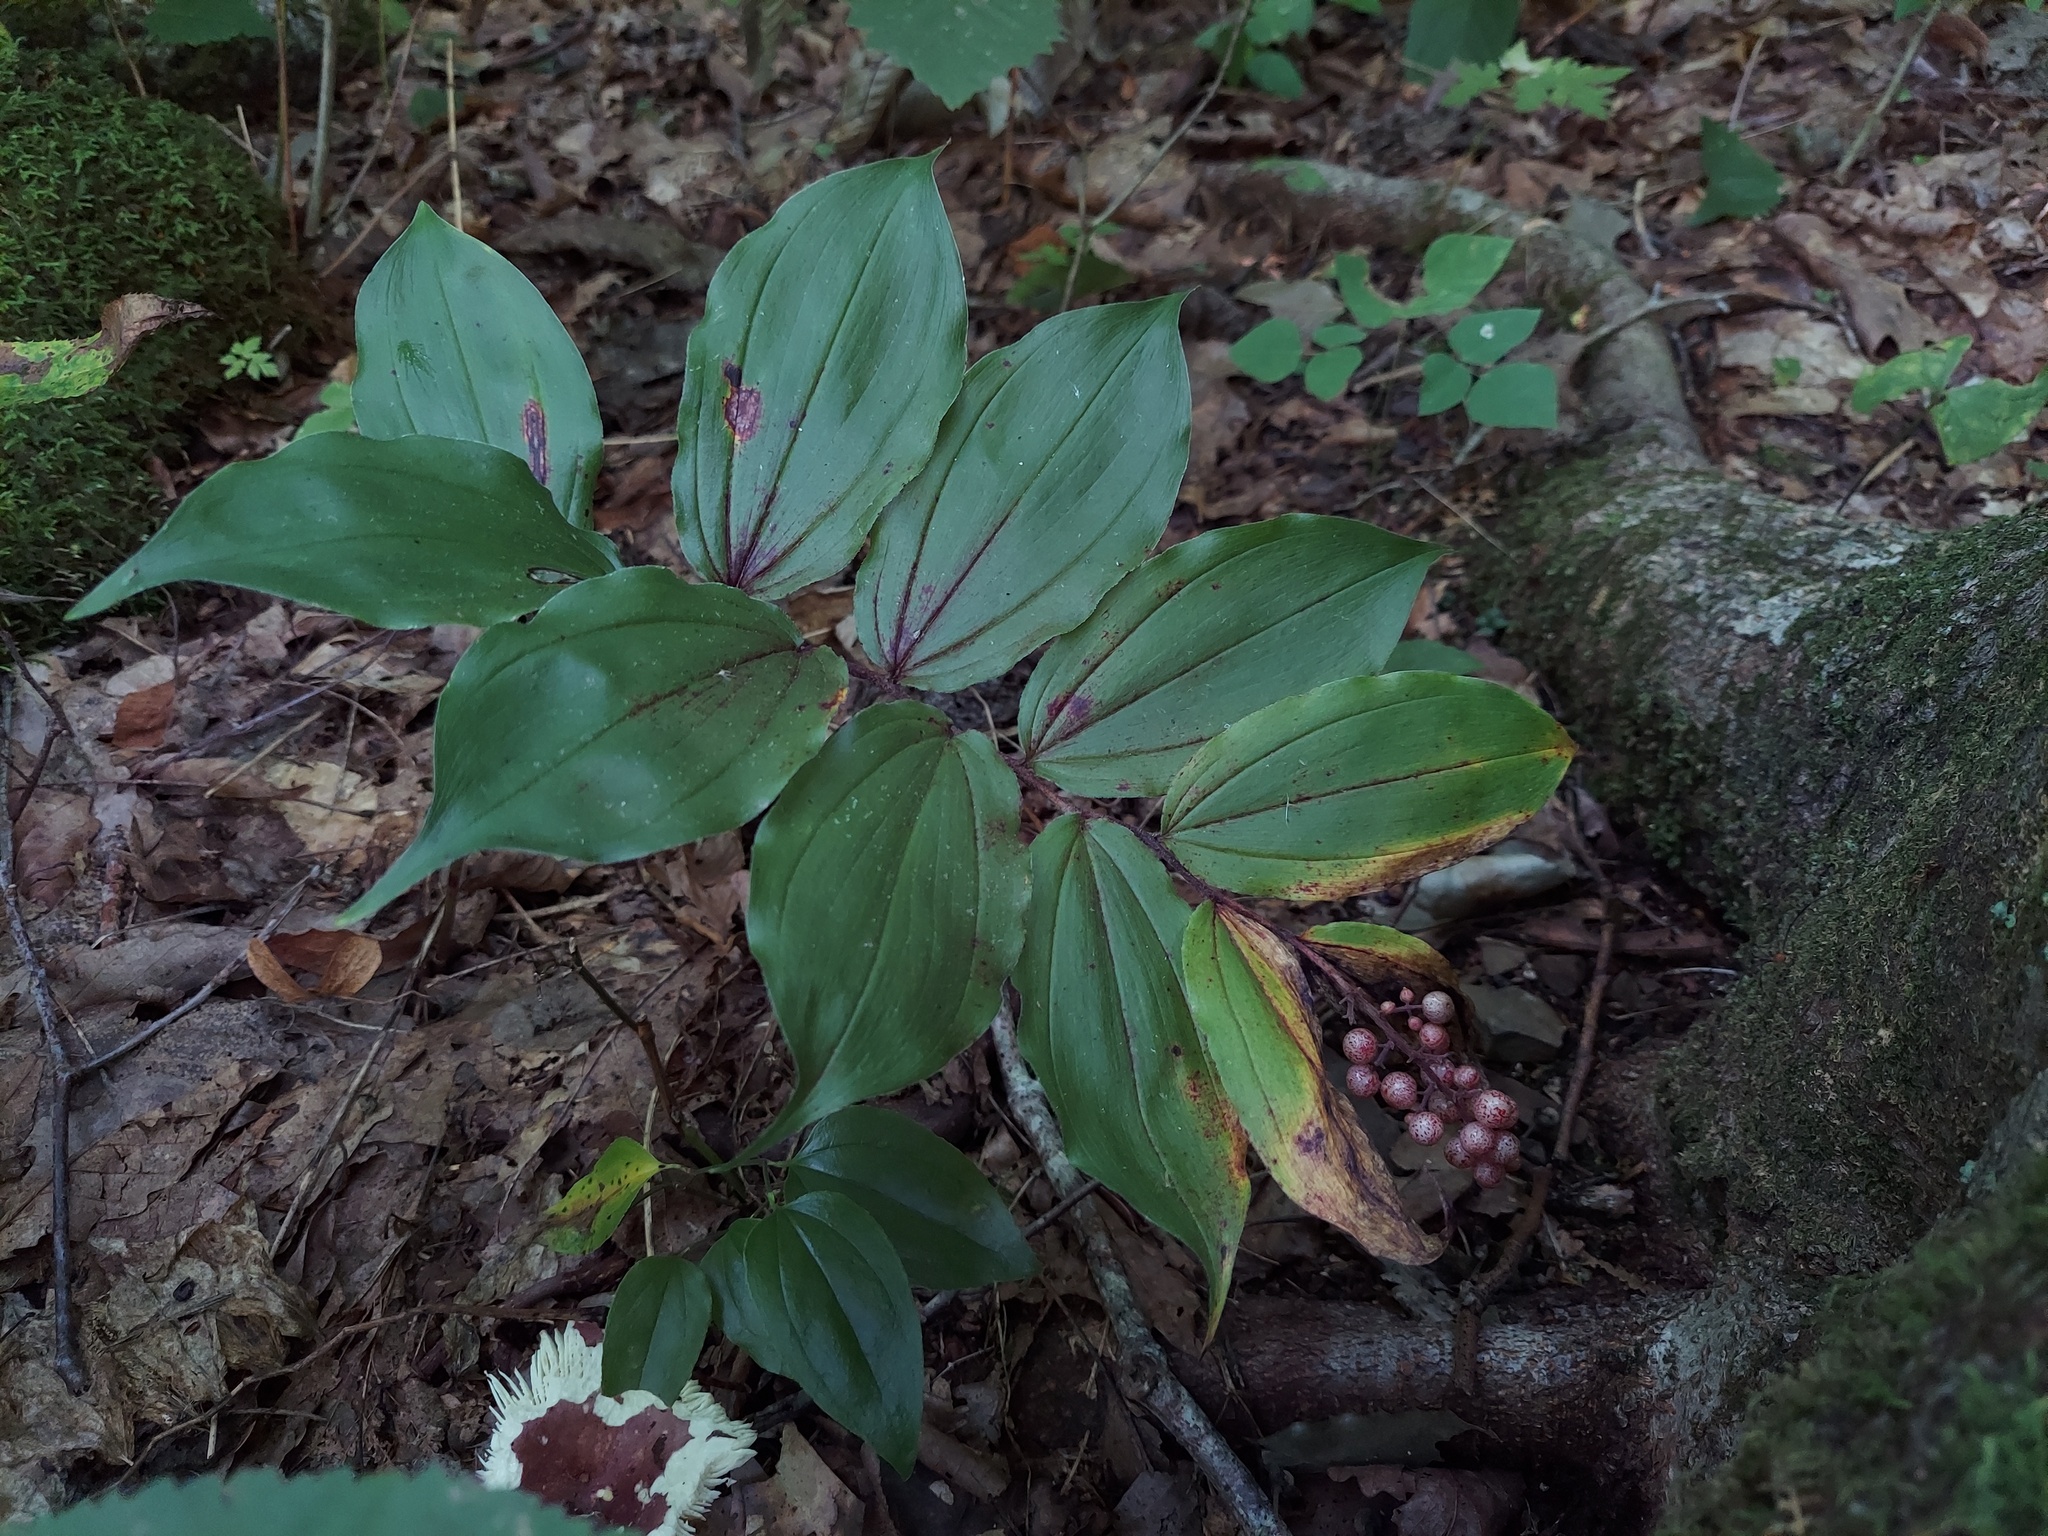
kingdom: Plantae
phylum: Tracheophyta
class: Liliopsida
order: Asparagales
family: Asparagaceae
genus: Maianthemum
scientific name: Maianthemum racemosum
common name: False spikenard
